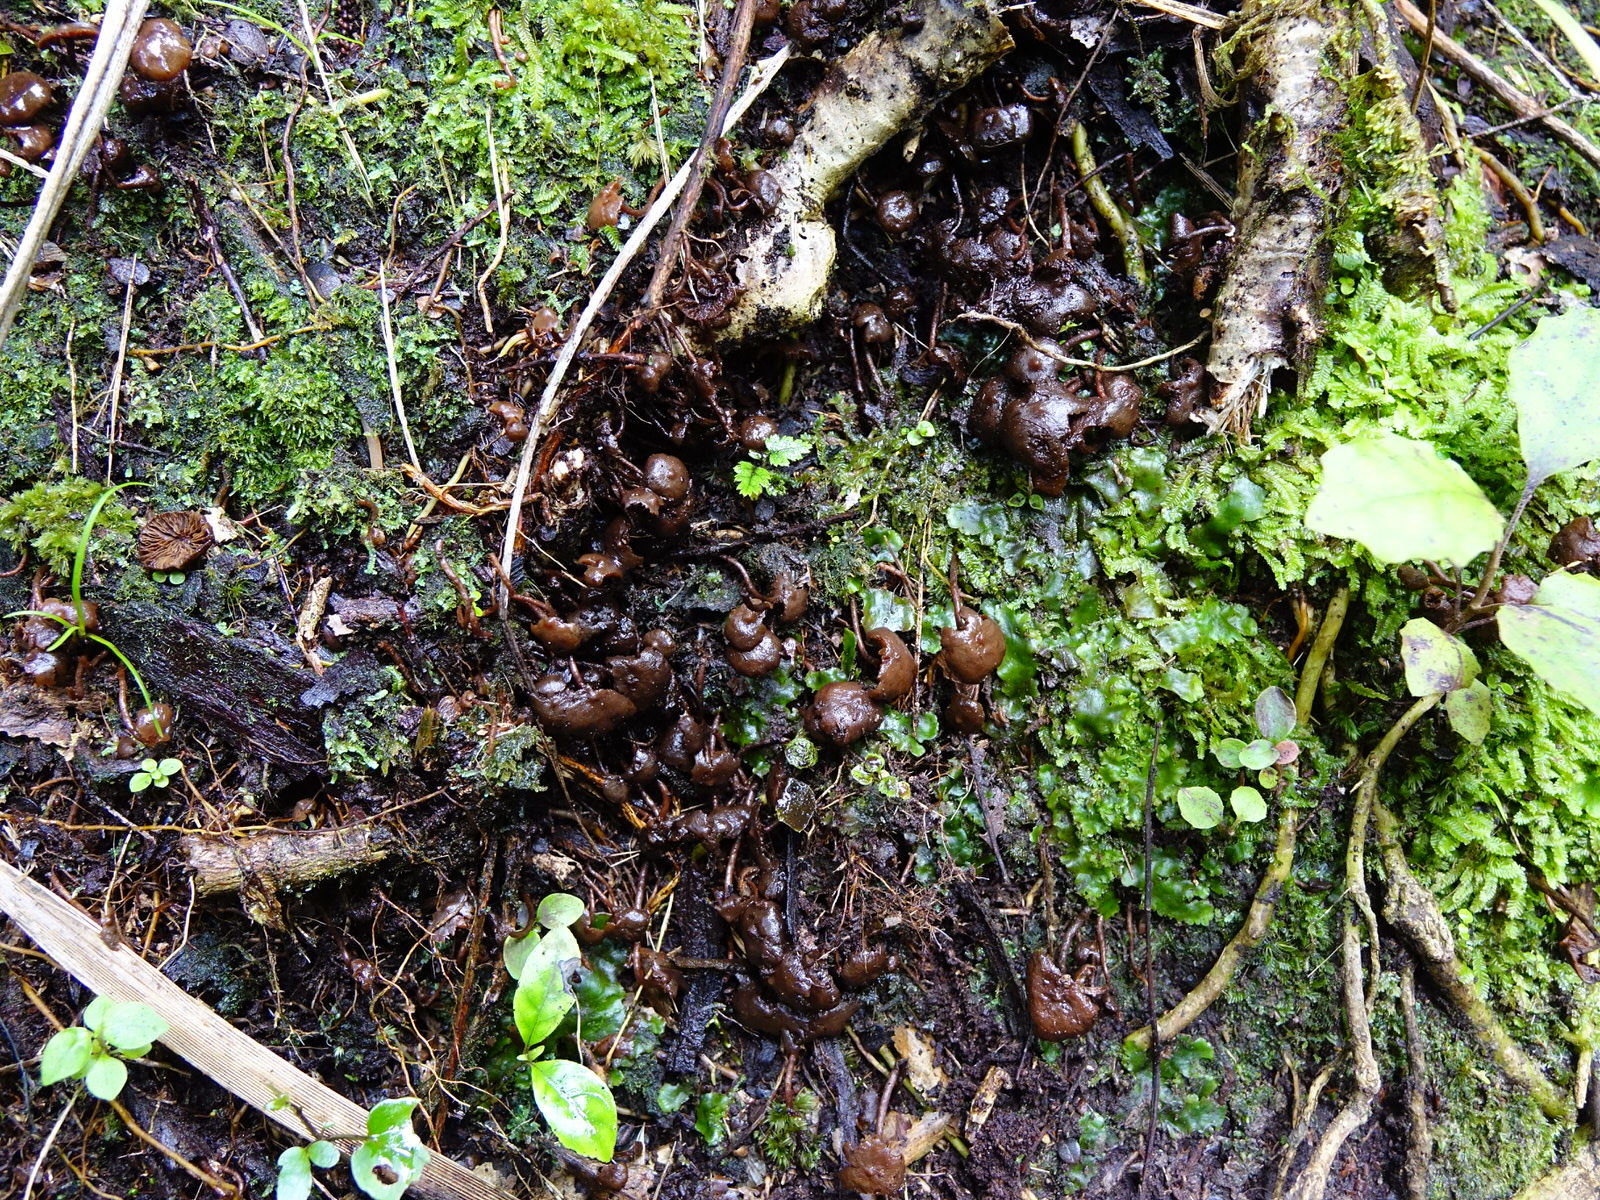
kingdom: Fungi
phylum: Basidiomycota
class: Agaricomycetes
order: Agaricales
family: Strophariaceae
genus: Kuehneromyces
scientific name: Kuehneromyces brunneoalbescens
